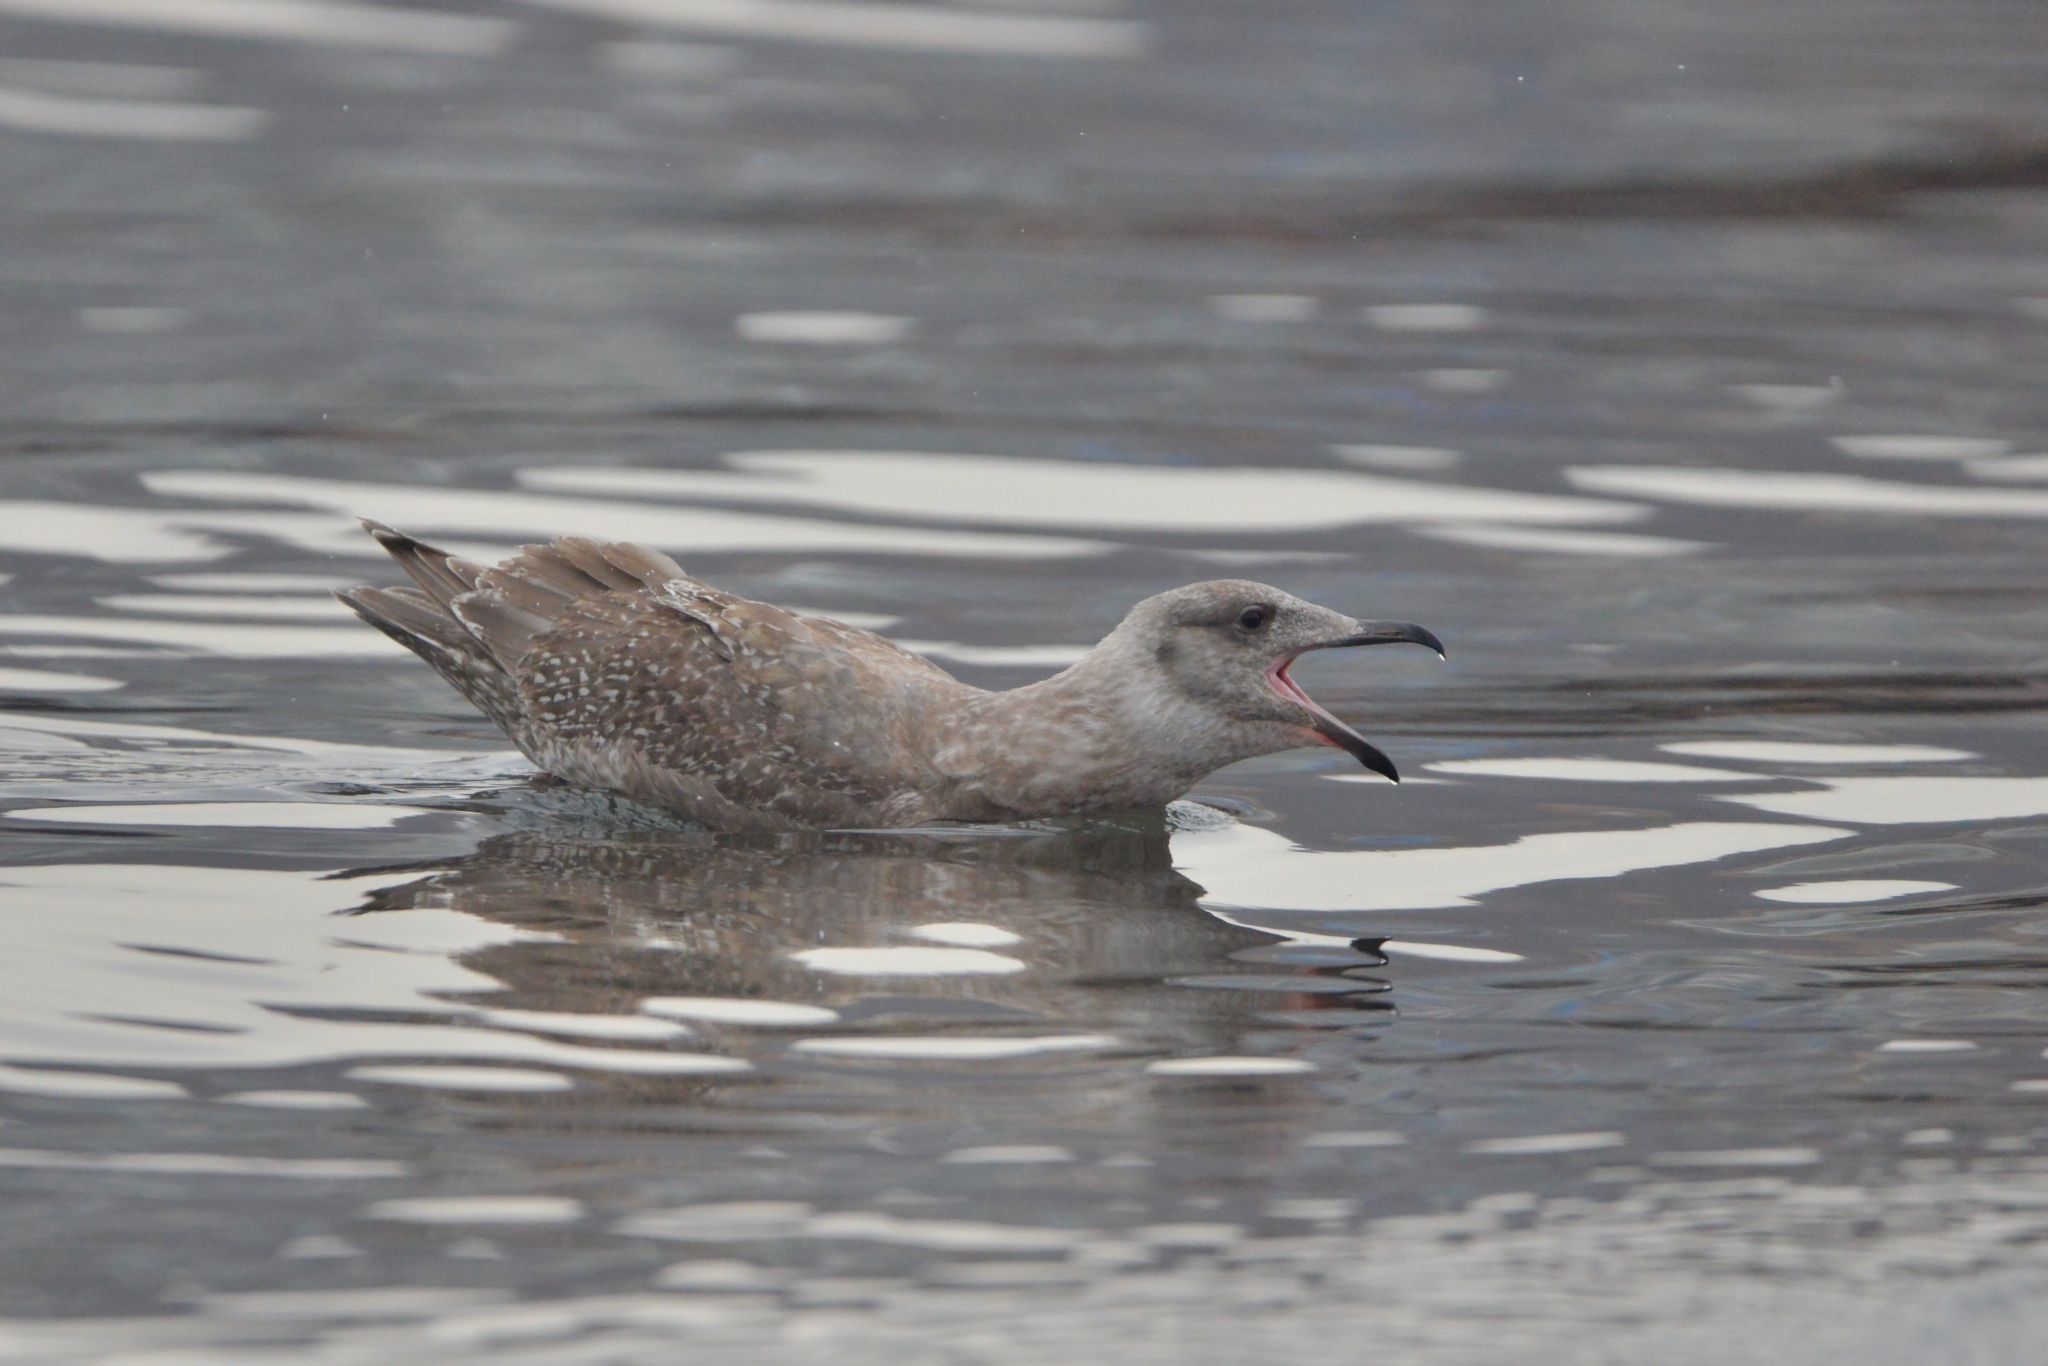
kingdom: Animalia
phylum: Chordata
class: Aves
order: Charadriiformes
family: Laridae
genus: Larus
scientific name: Larus glaucescens
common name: Glaucous-winged gull
